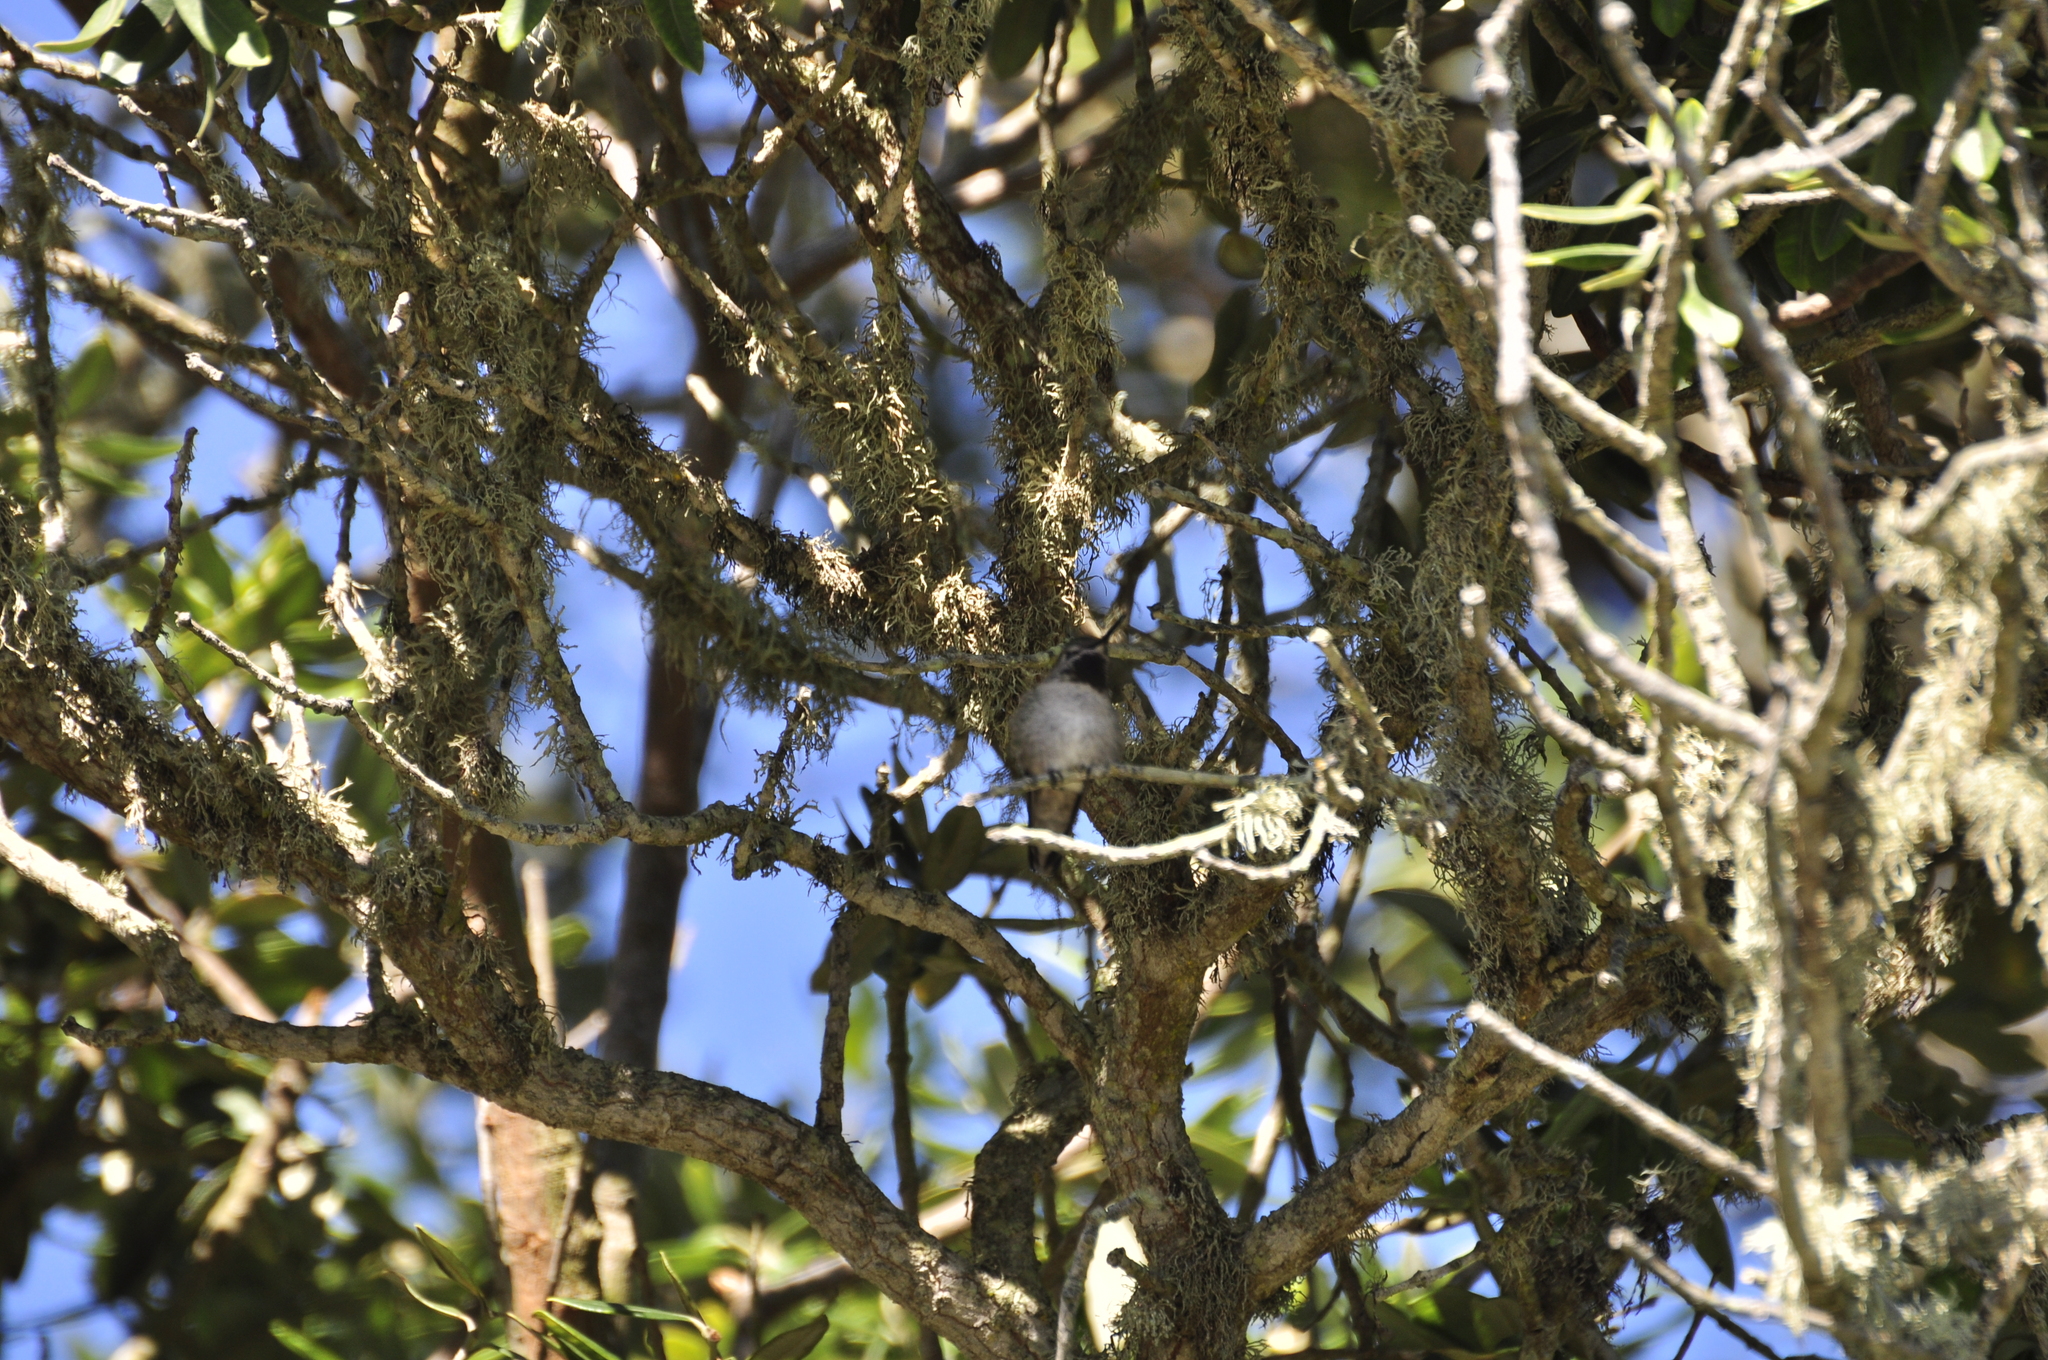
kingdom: Animalia
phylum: Chordata
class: Aves
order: Apodiformes
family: Trochilidae
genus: Calypte
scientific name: Calypte anna
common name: Anna's hummingbird
